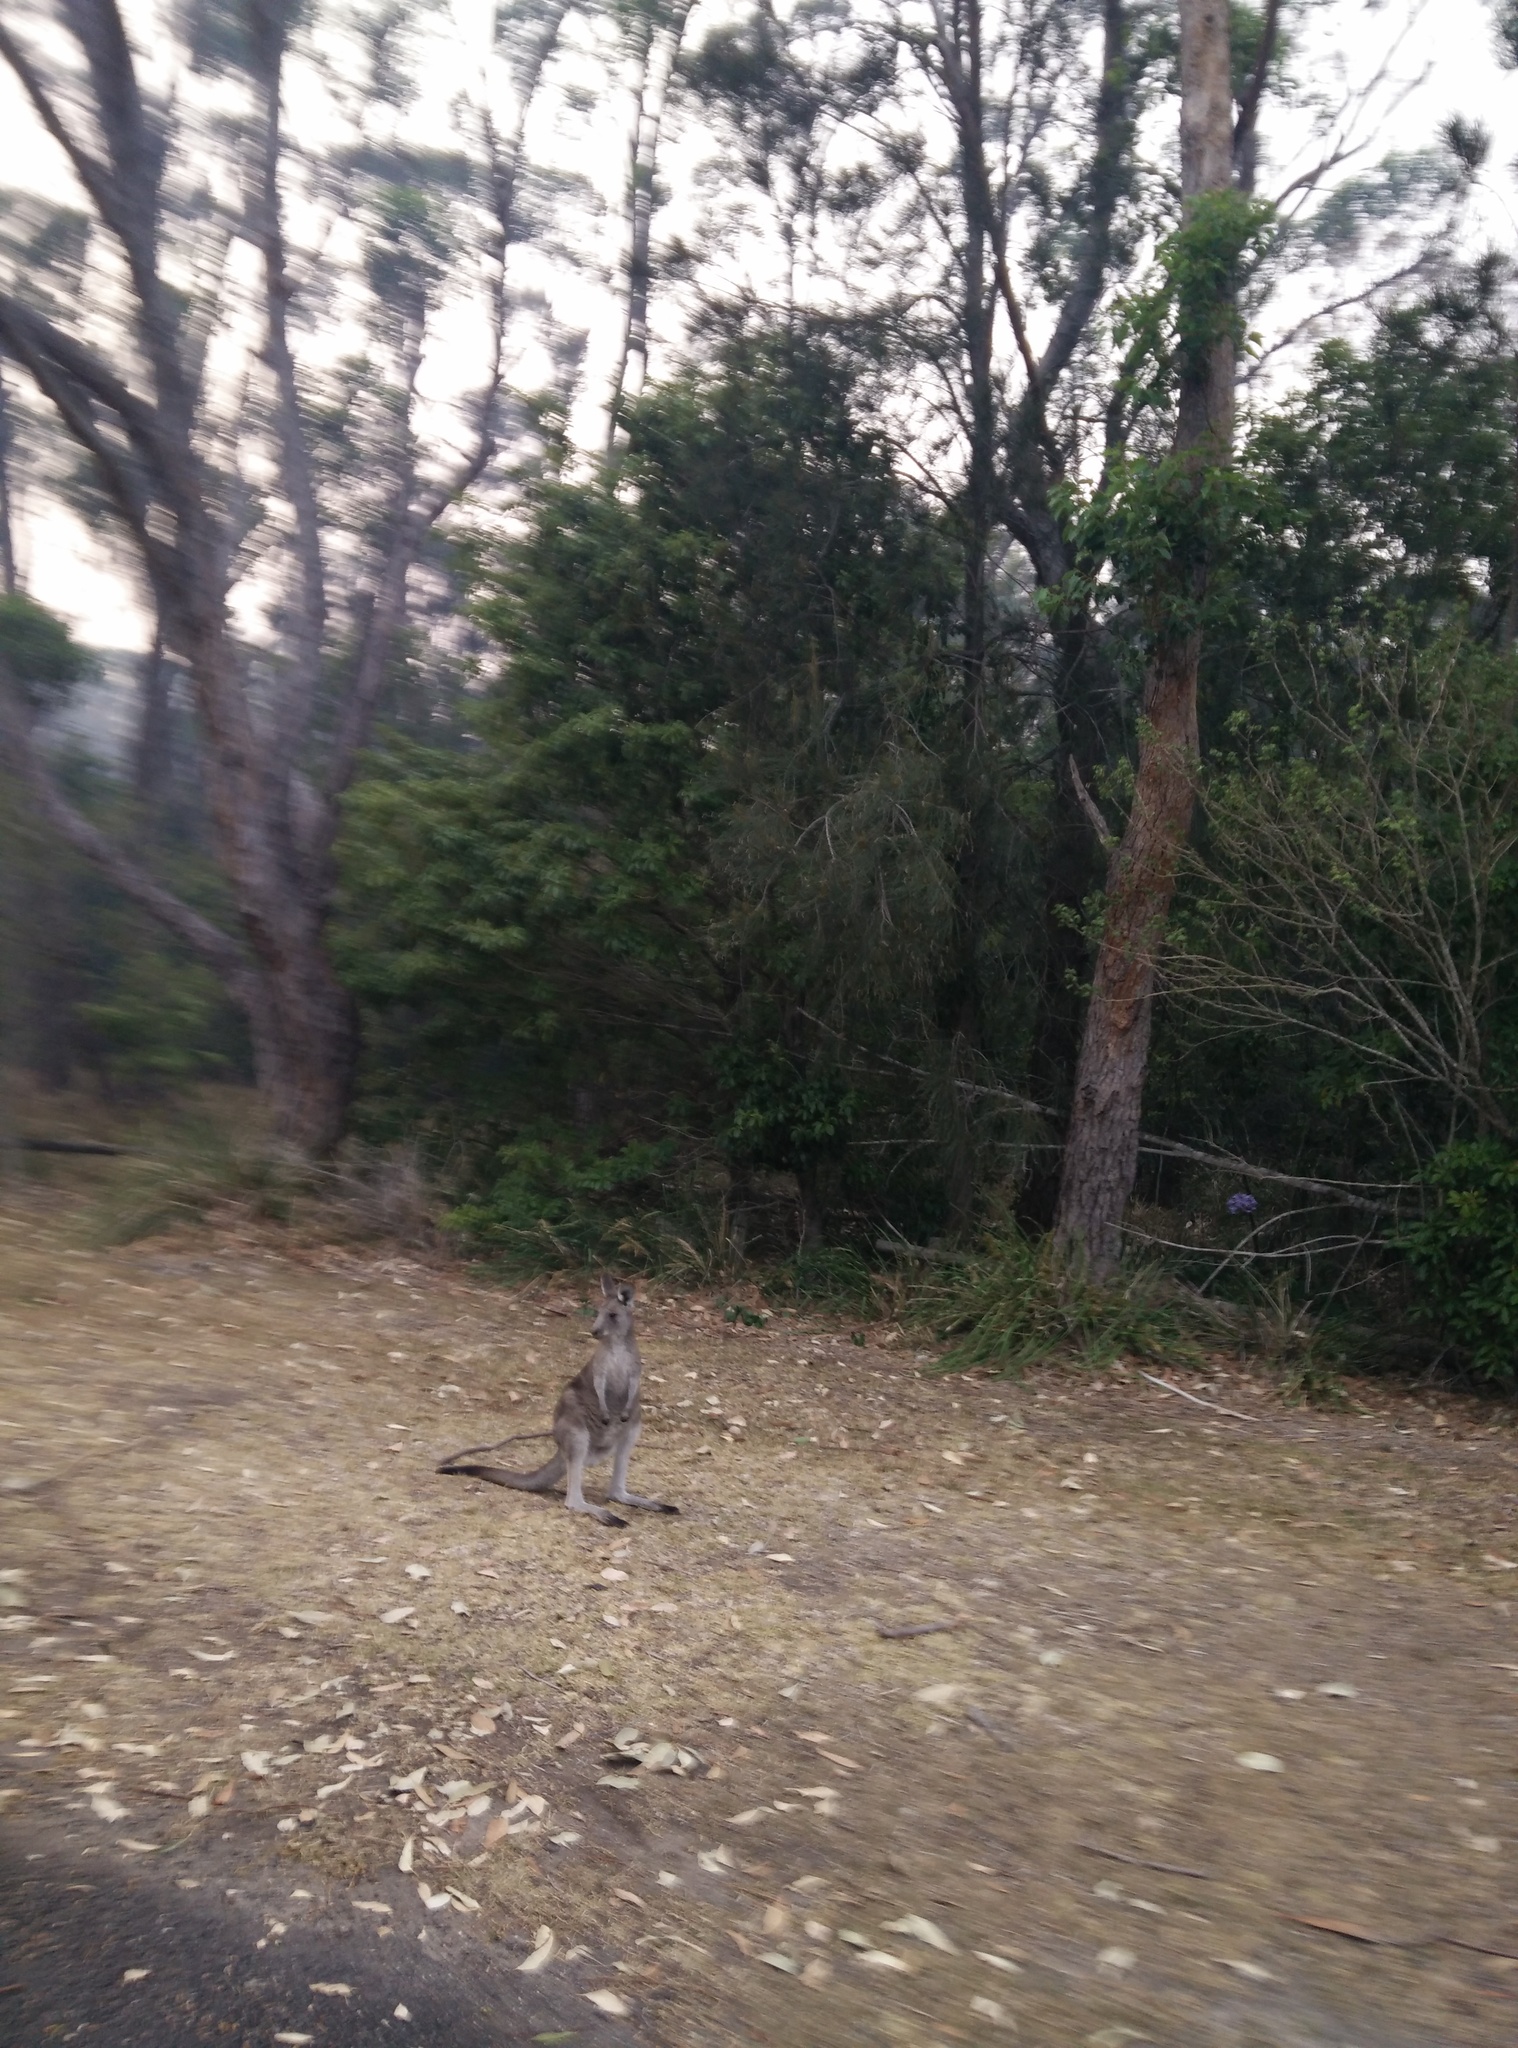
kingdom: Animalia
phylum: Chordata
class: Mammalia
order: Diprotodontia
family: Macropodidae
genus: Macropus
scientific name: Macropus giganteus
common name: Eastern grey kangaroo
